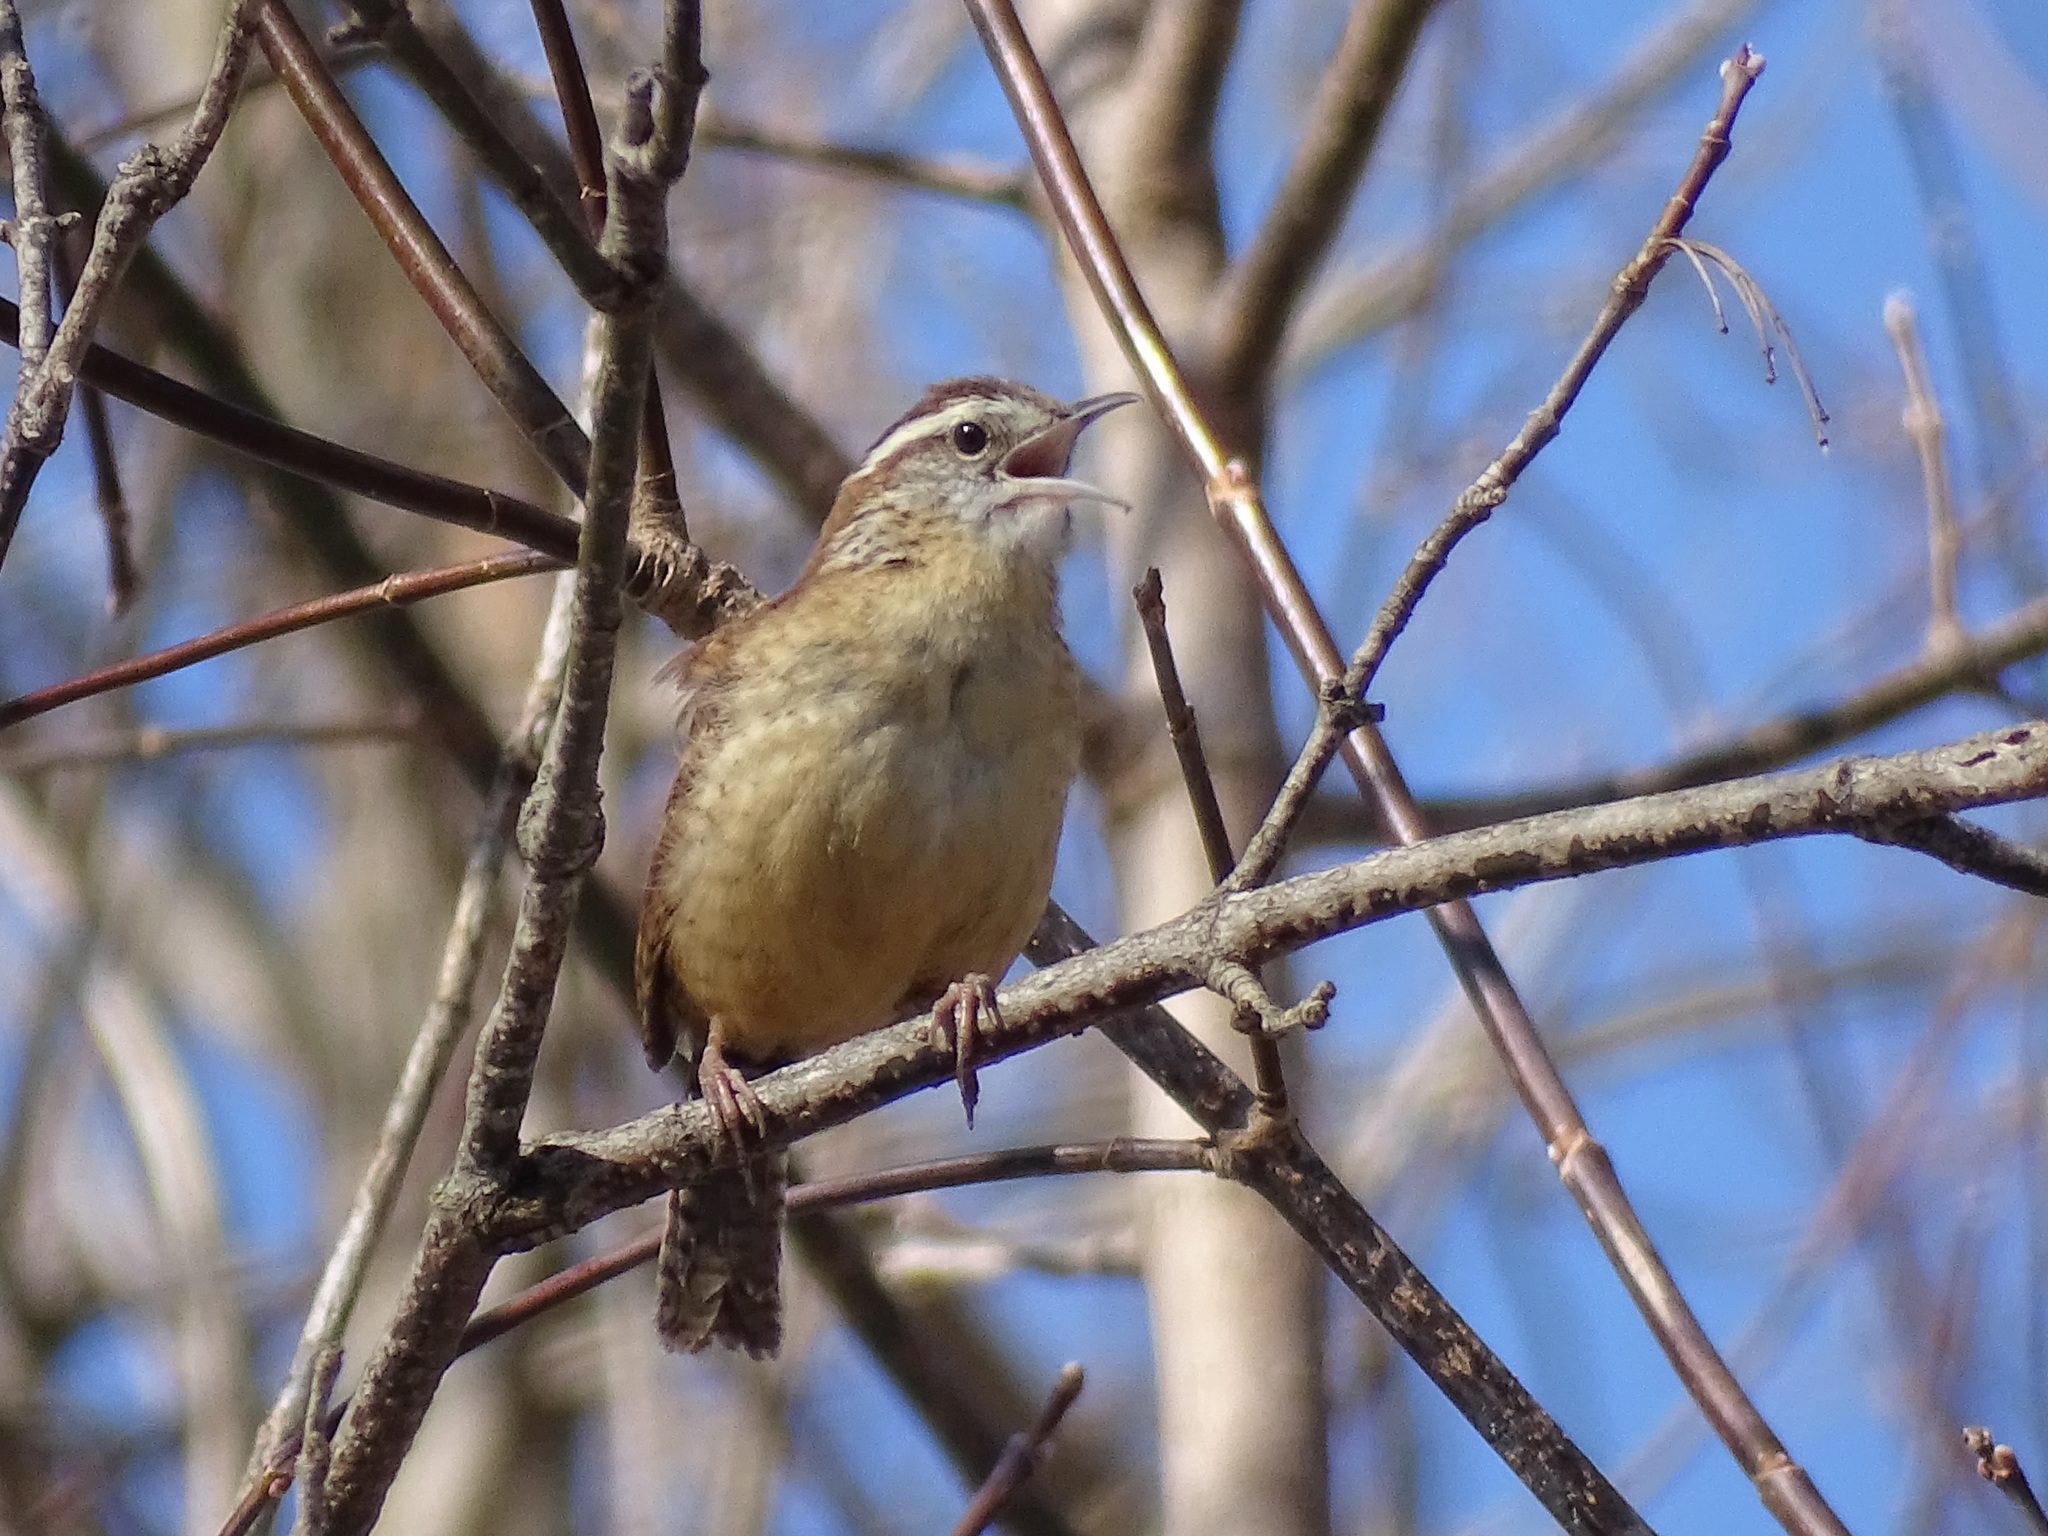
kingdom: Animalia
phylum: Chordata
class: Aves
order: Passeriformes
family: Troglodytidae
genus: Thryothorus
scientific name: Thryothorus ludovicianus
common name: Carolina wren
